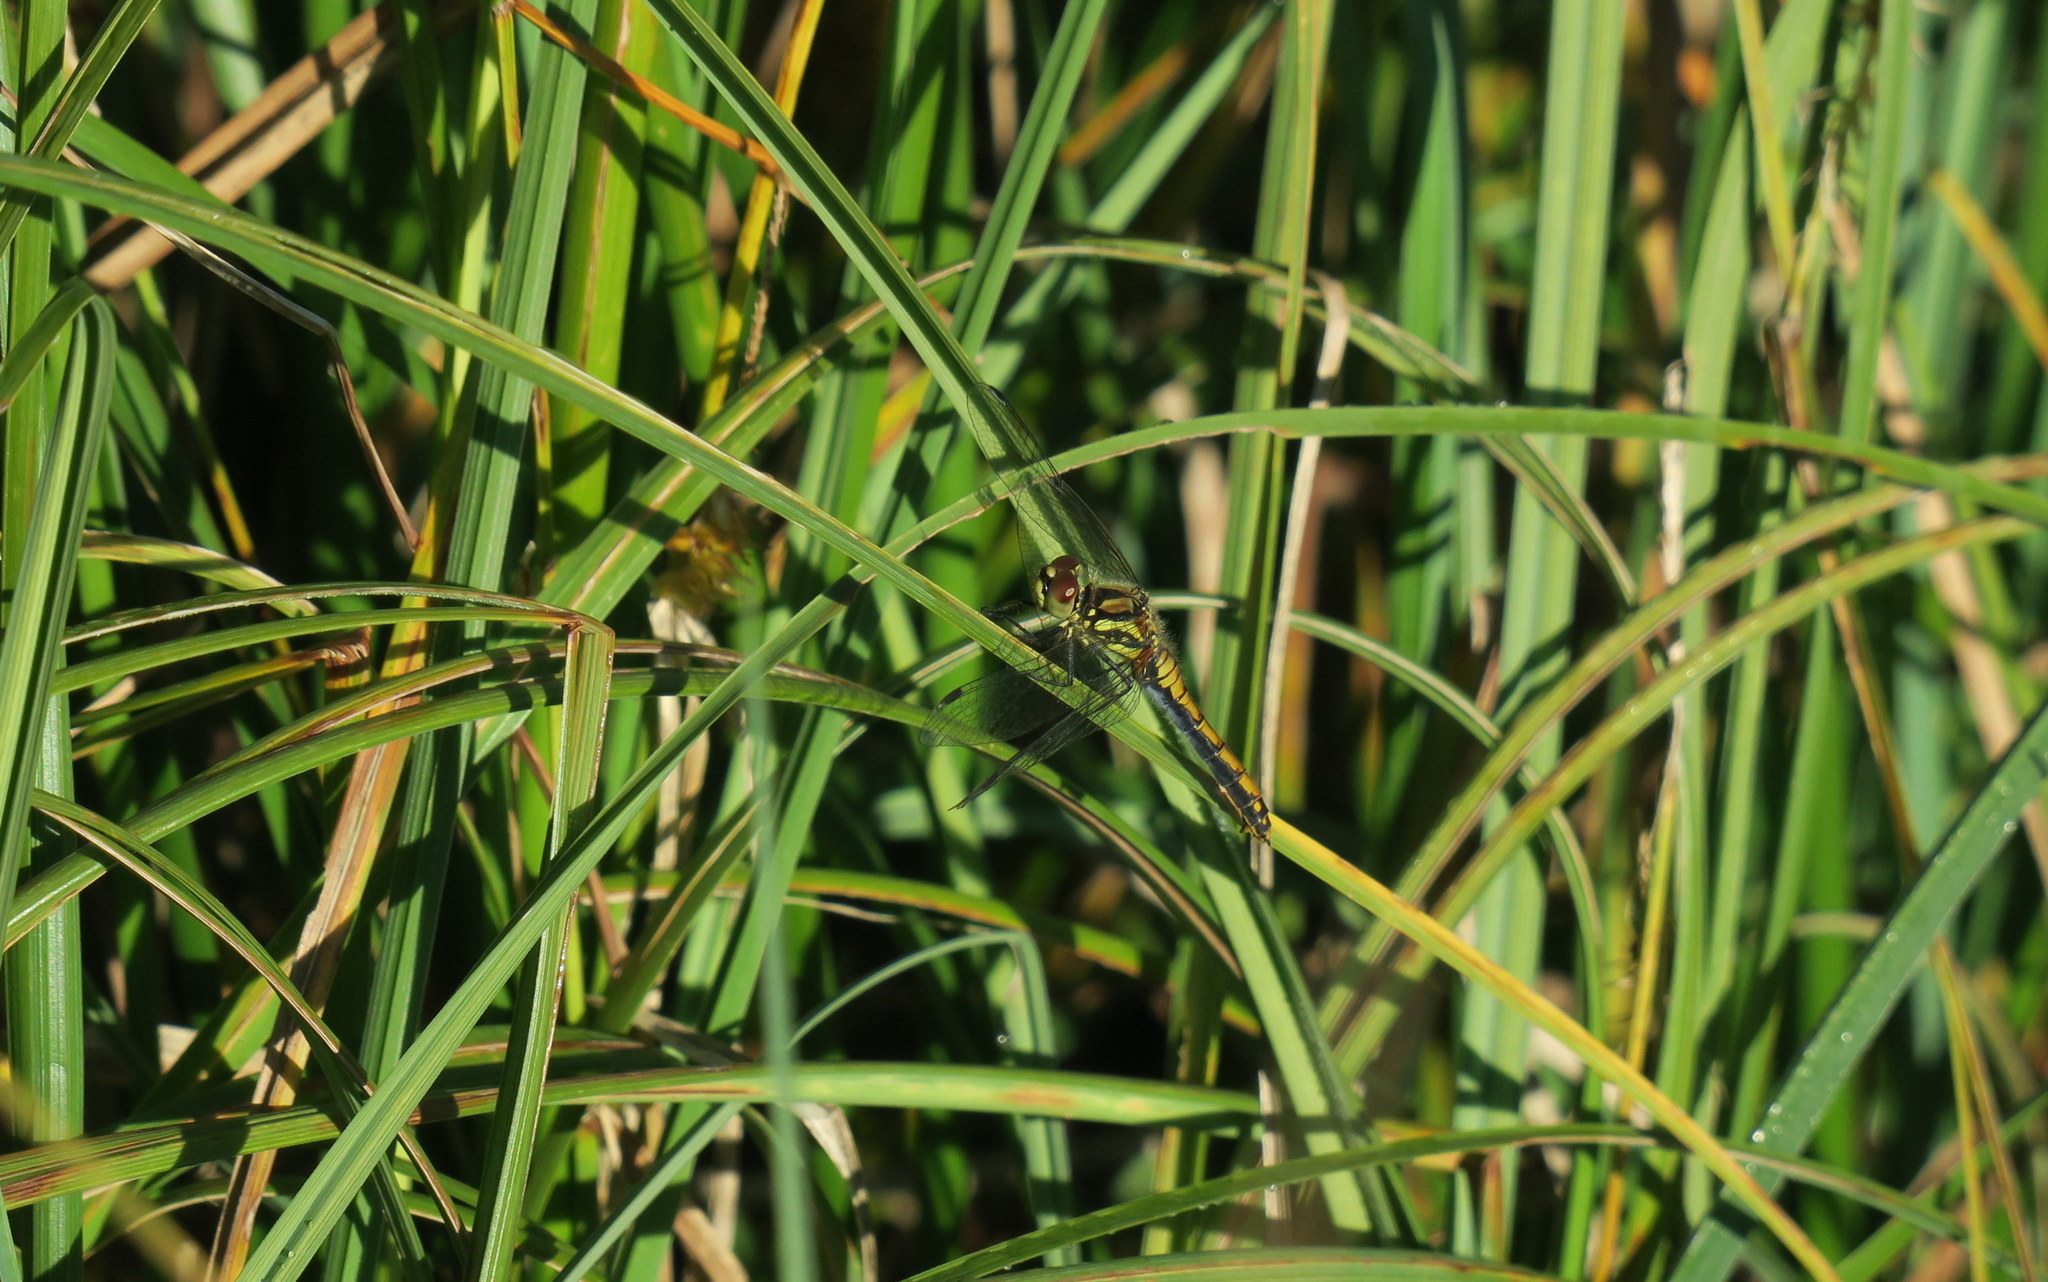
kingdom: Animalia
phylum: Arthropoda
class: Insecta
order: Odonata
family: Libellulidae
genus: Sympetrum
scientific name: Sympetrum danae
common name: Black darter
